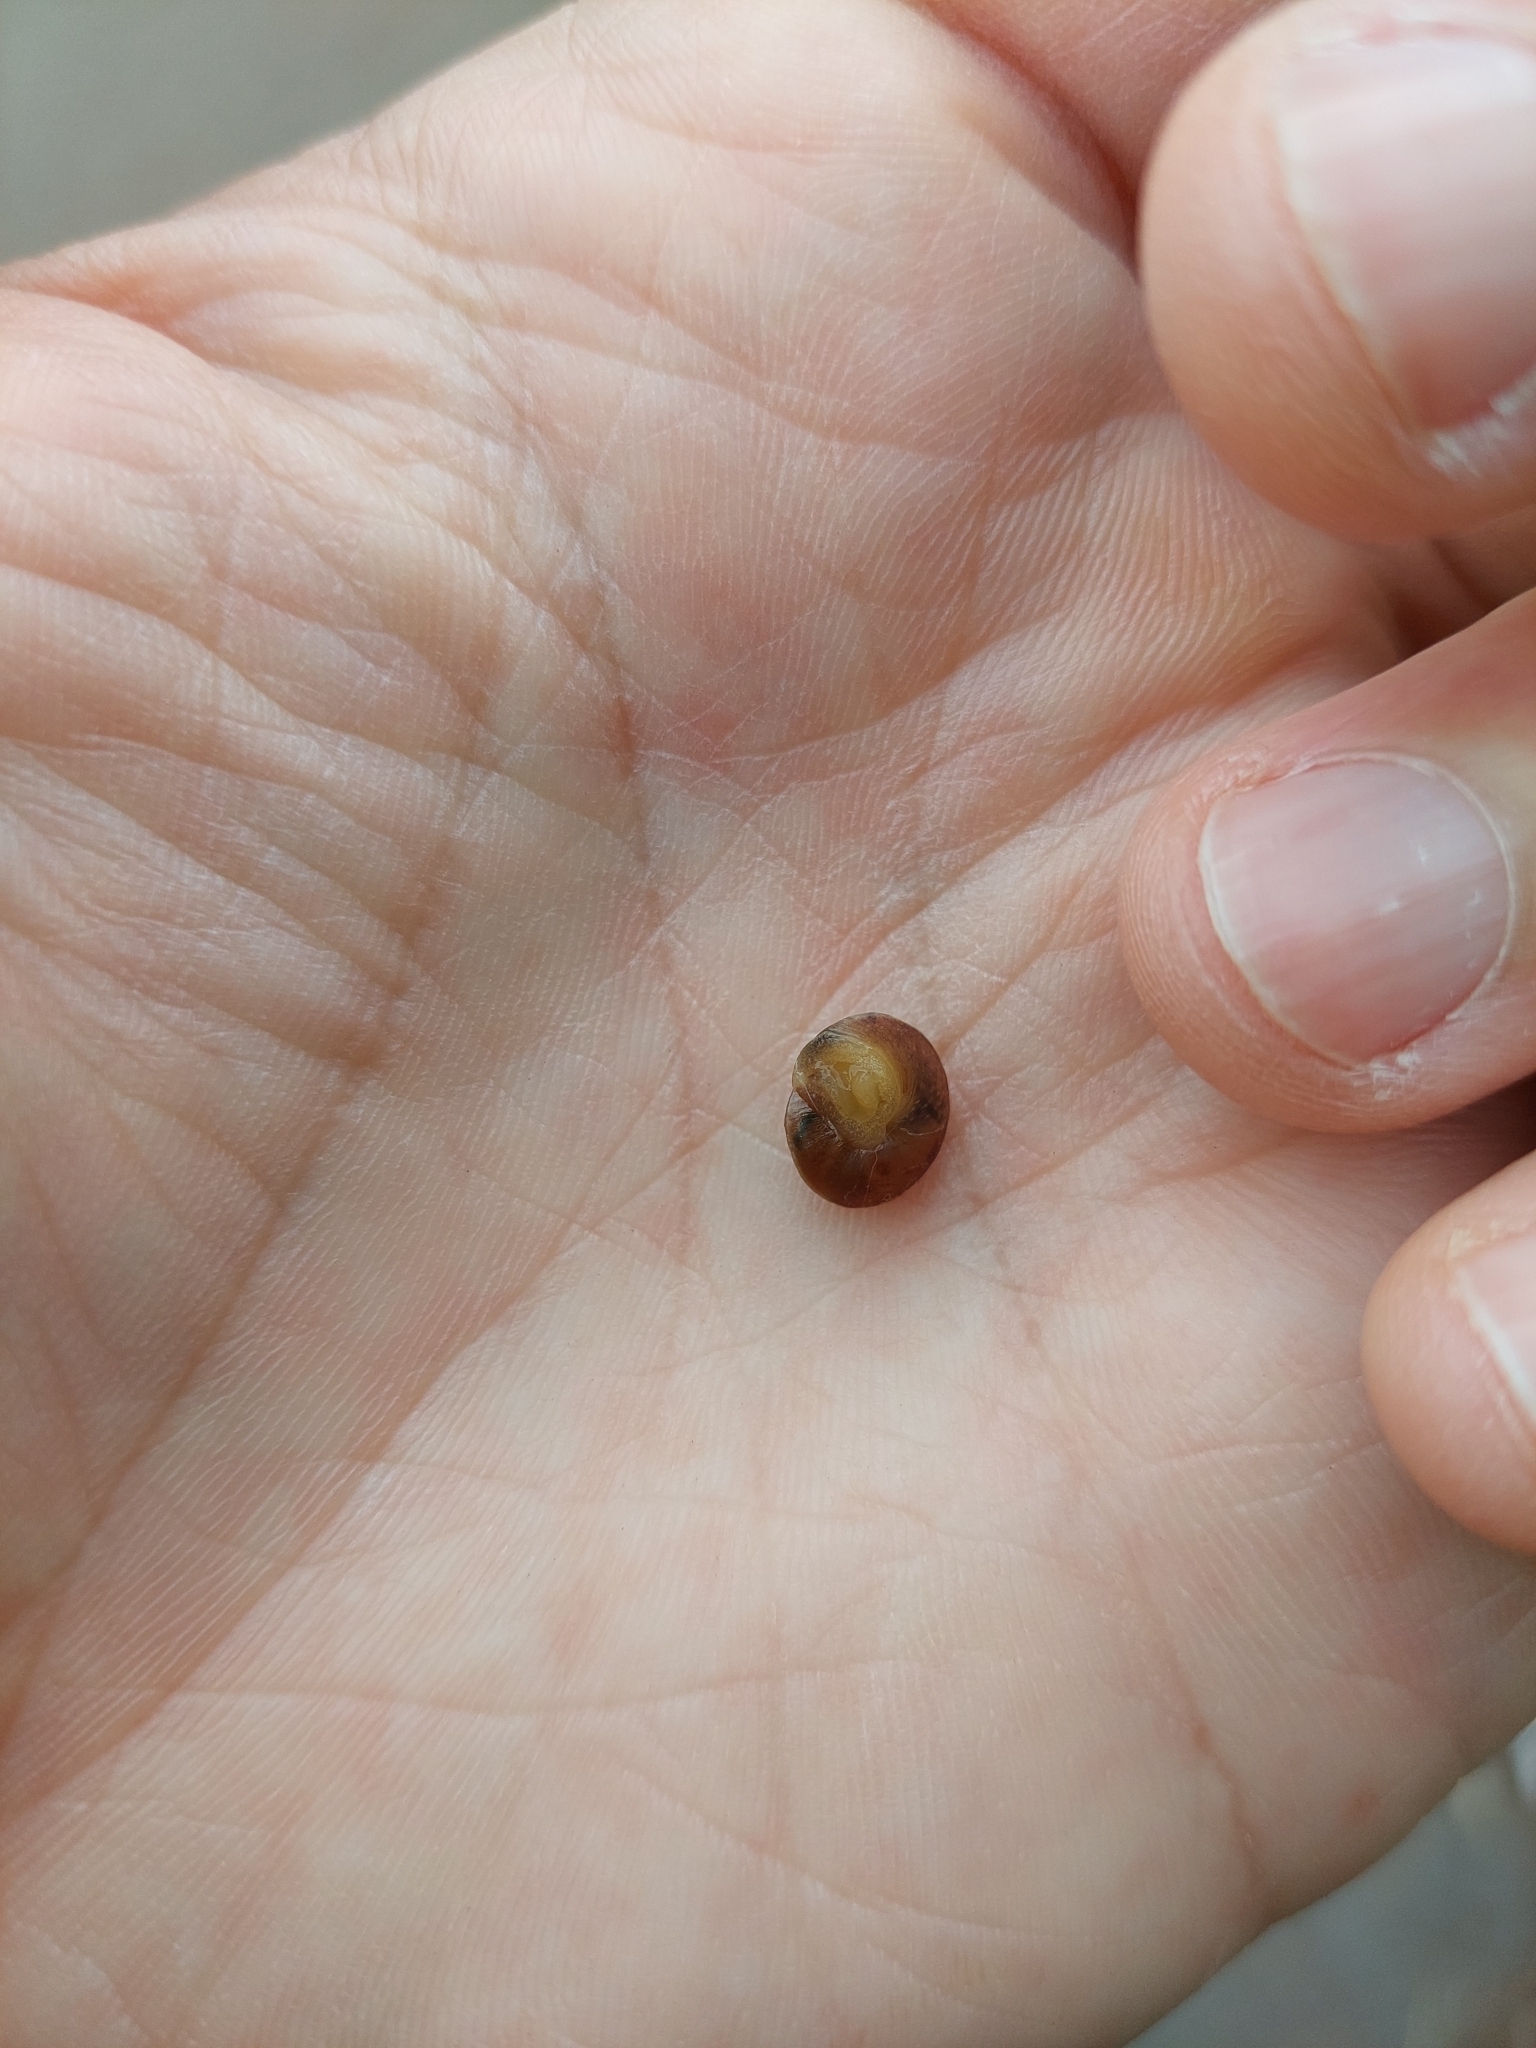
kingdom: Animalia
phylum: Mollusca
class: Gastropoda
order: Stylommatophora
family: Hygromiidae
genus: Hygromia
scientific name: Hygromia cinctella
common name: Girdled snail
